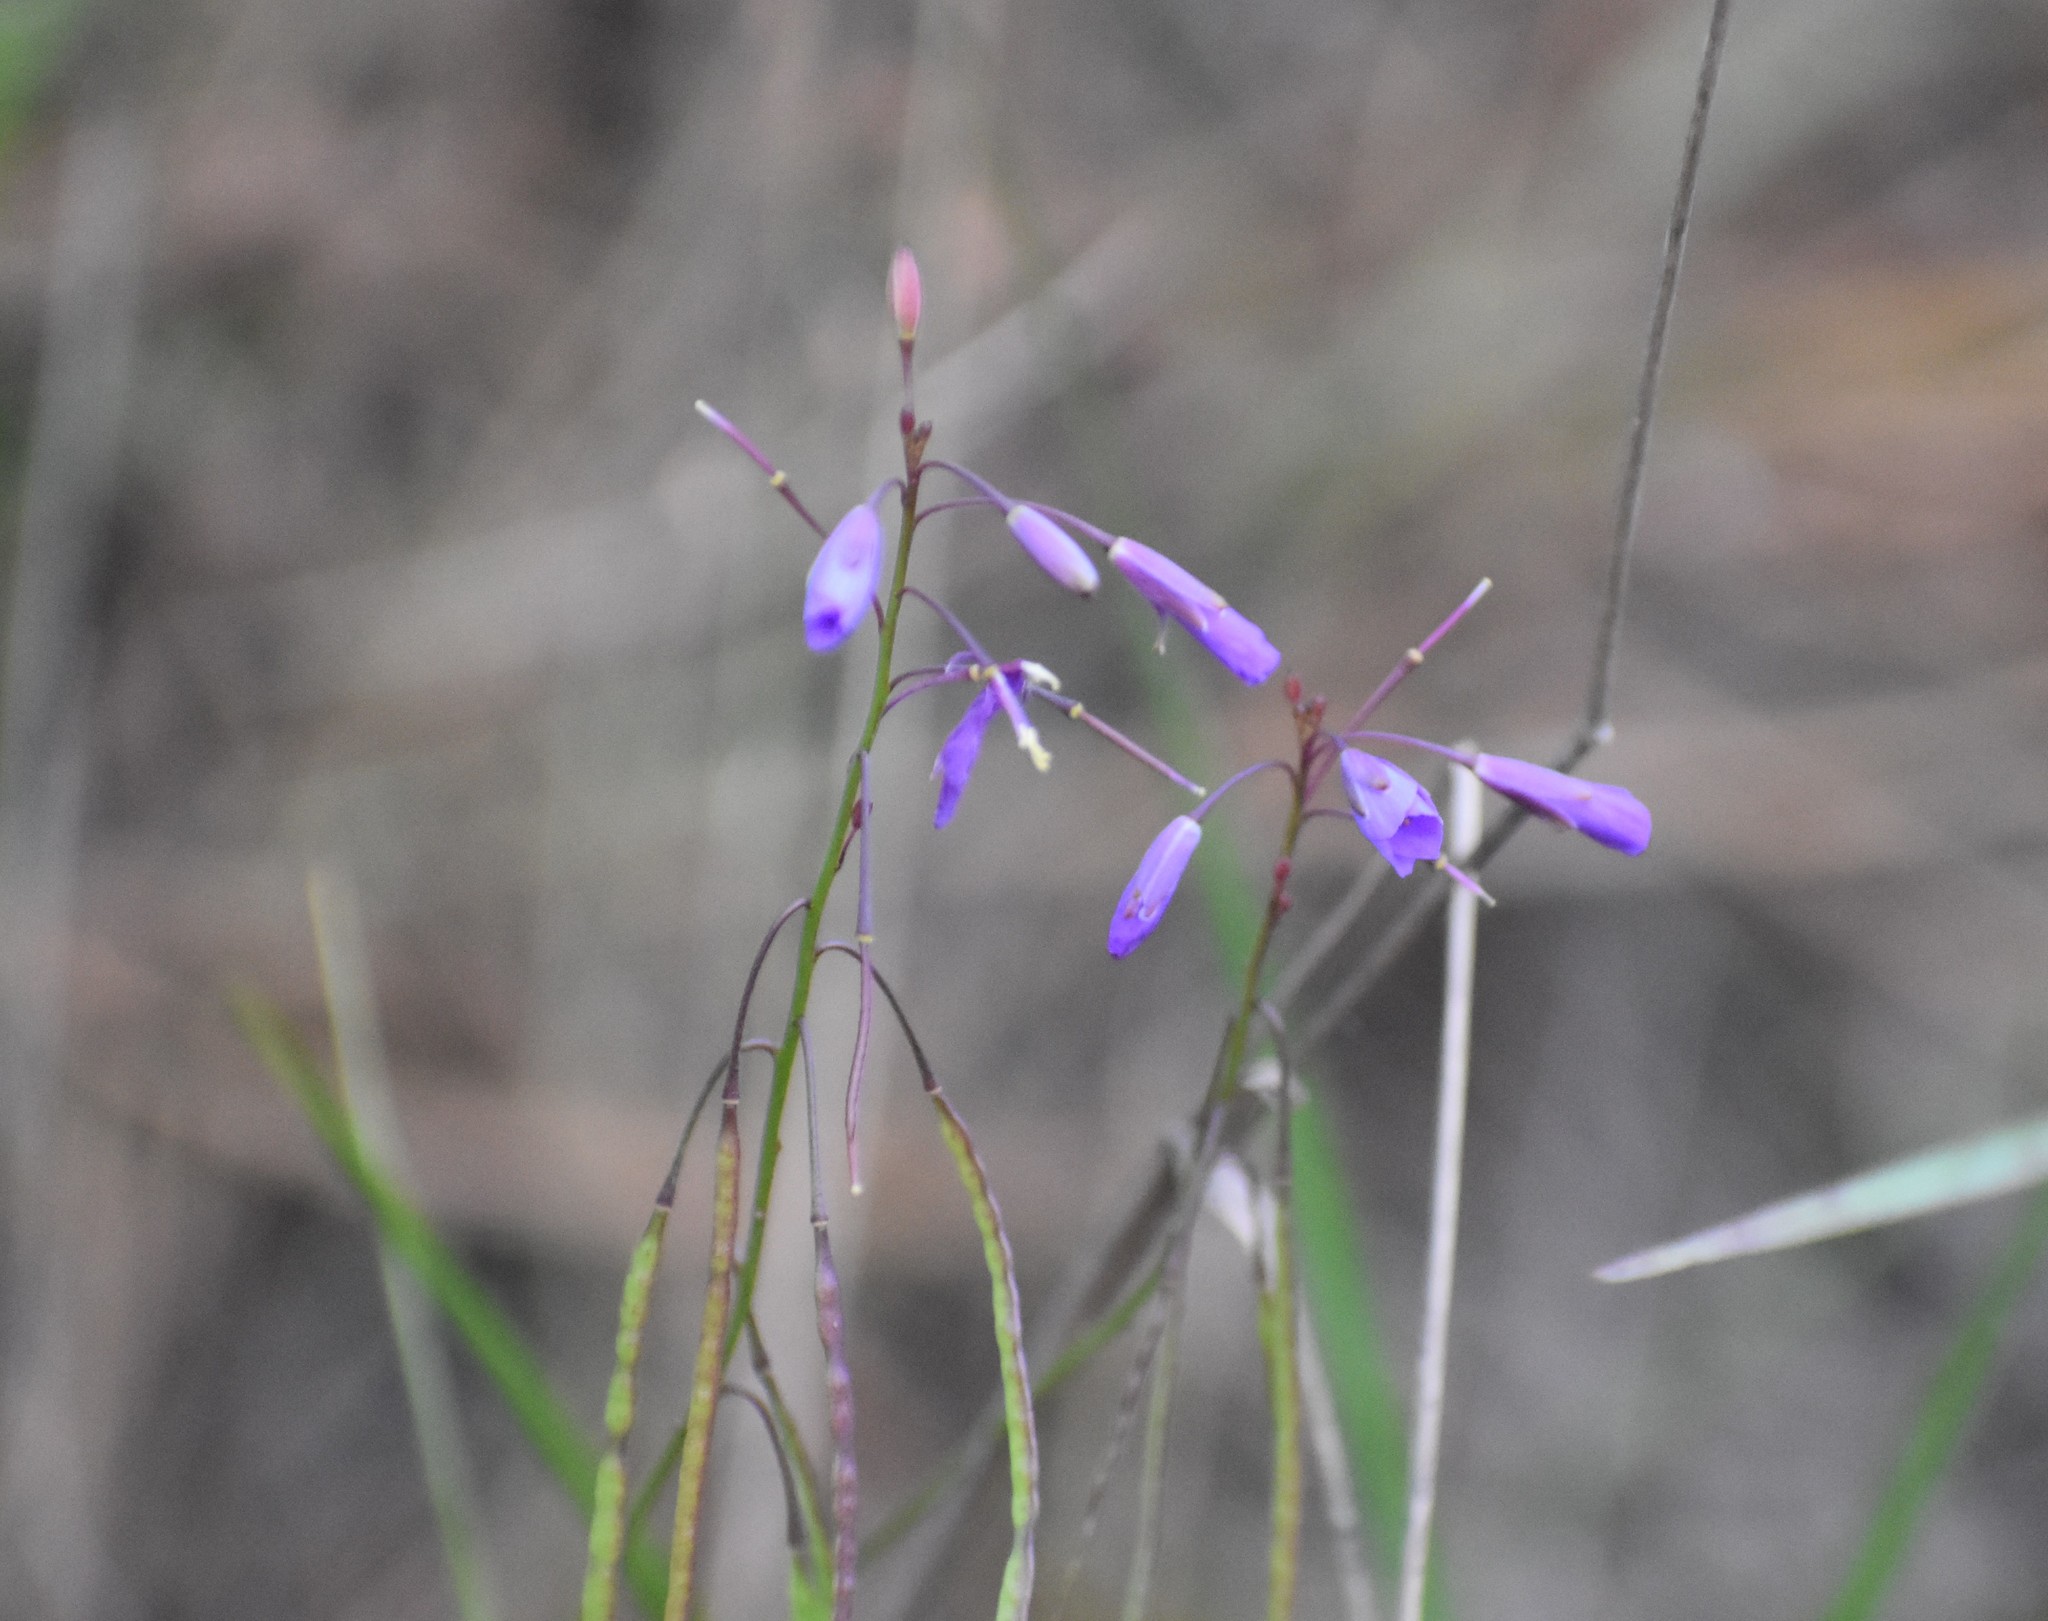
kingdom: Plantae
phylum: Tracheophyta
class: Magnoliopsida
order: Brassicales
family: Brassicaceae
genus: Heliophila
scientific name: Heliophila subulata
